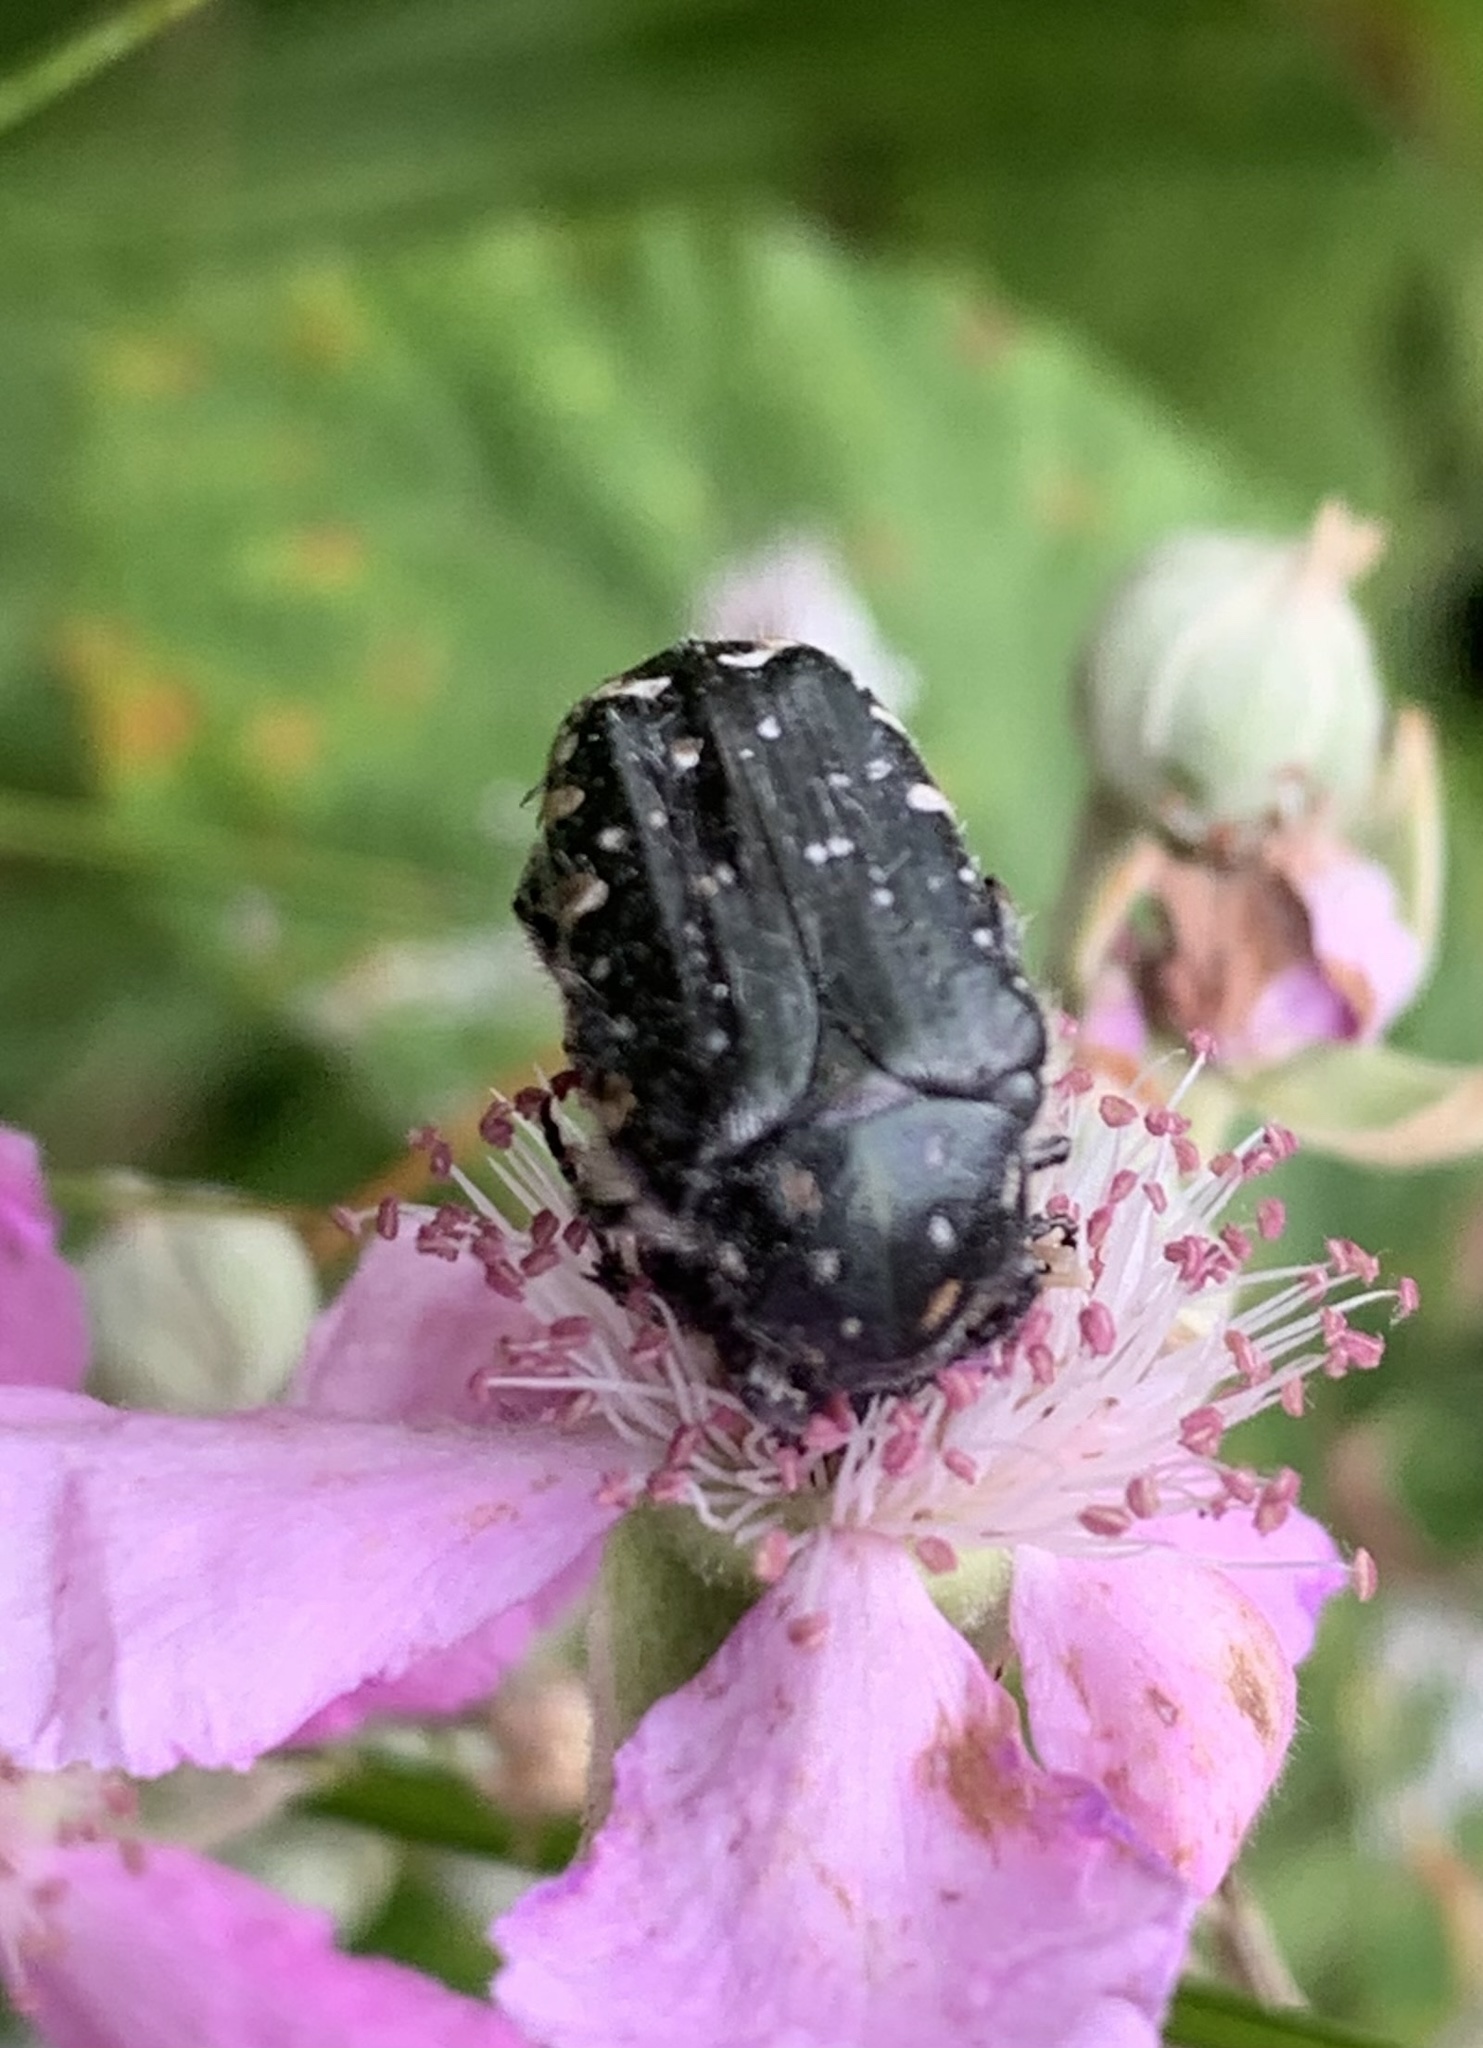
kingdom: Animalia
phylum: Arthropoda
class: Insecta
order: Coleoptera
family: Scarabaeidae
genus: Oxythyrea
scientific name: Oxythyrea funesta
